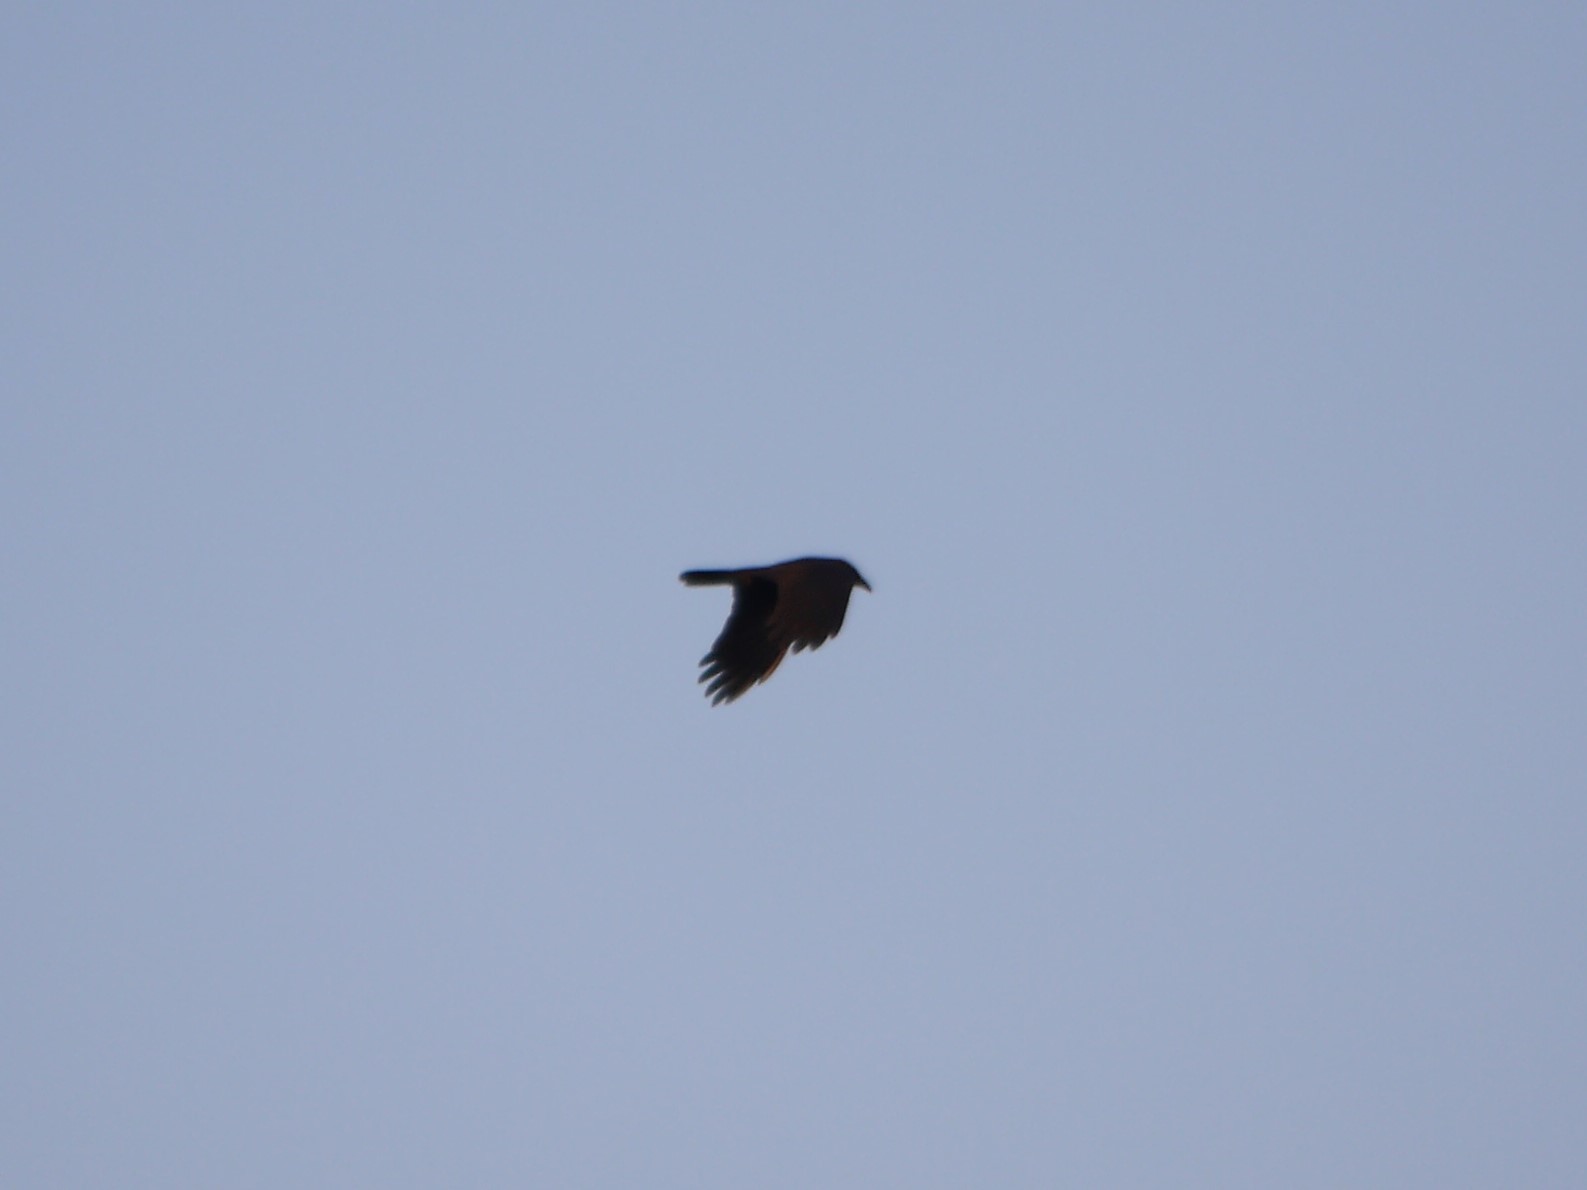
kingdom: Animalia
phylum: Chordata
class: Aves
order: Passeriformes
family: Corvidae
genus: Corvus
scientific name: Corvus corone
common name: Carrion crow
